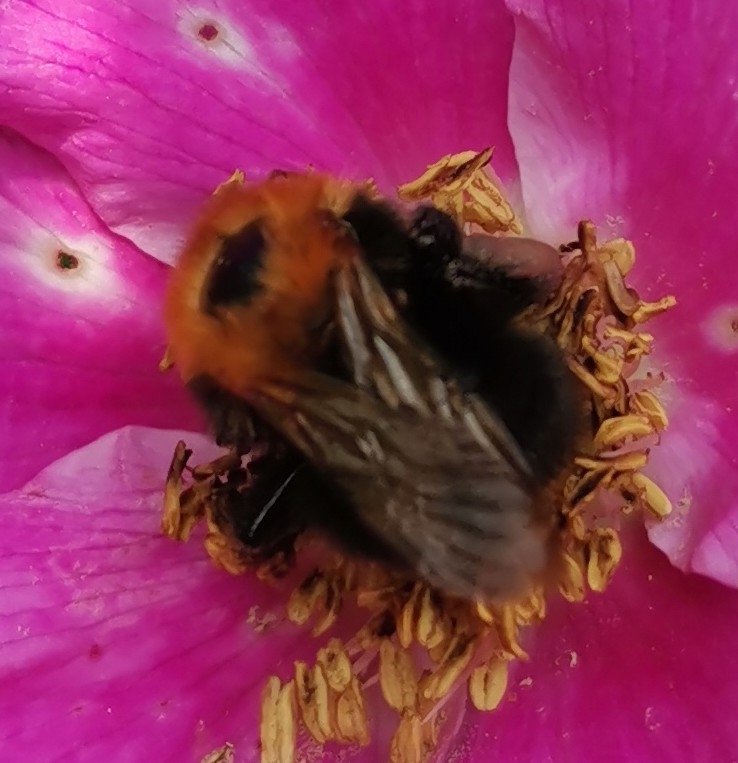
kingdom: Animalia
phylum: Arthropoda
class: Insecta
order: Hymenoptera
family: Apidae
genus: Bombus
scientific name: Bombus hypnorum
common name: New garden bumblebee
